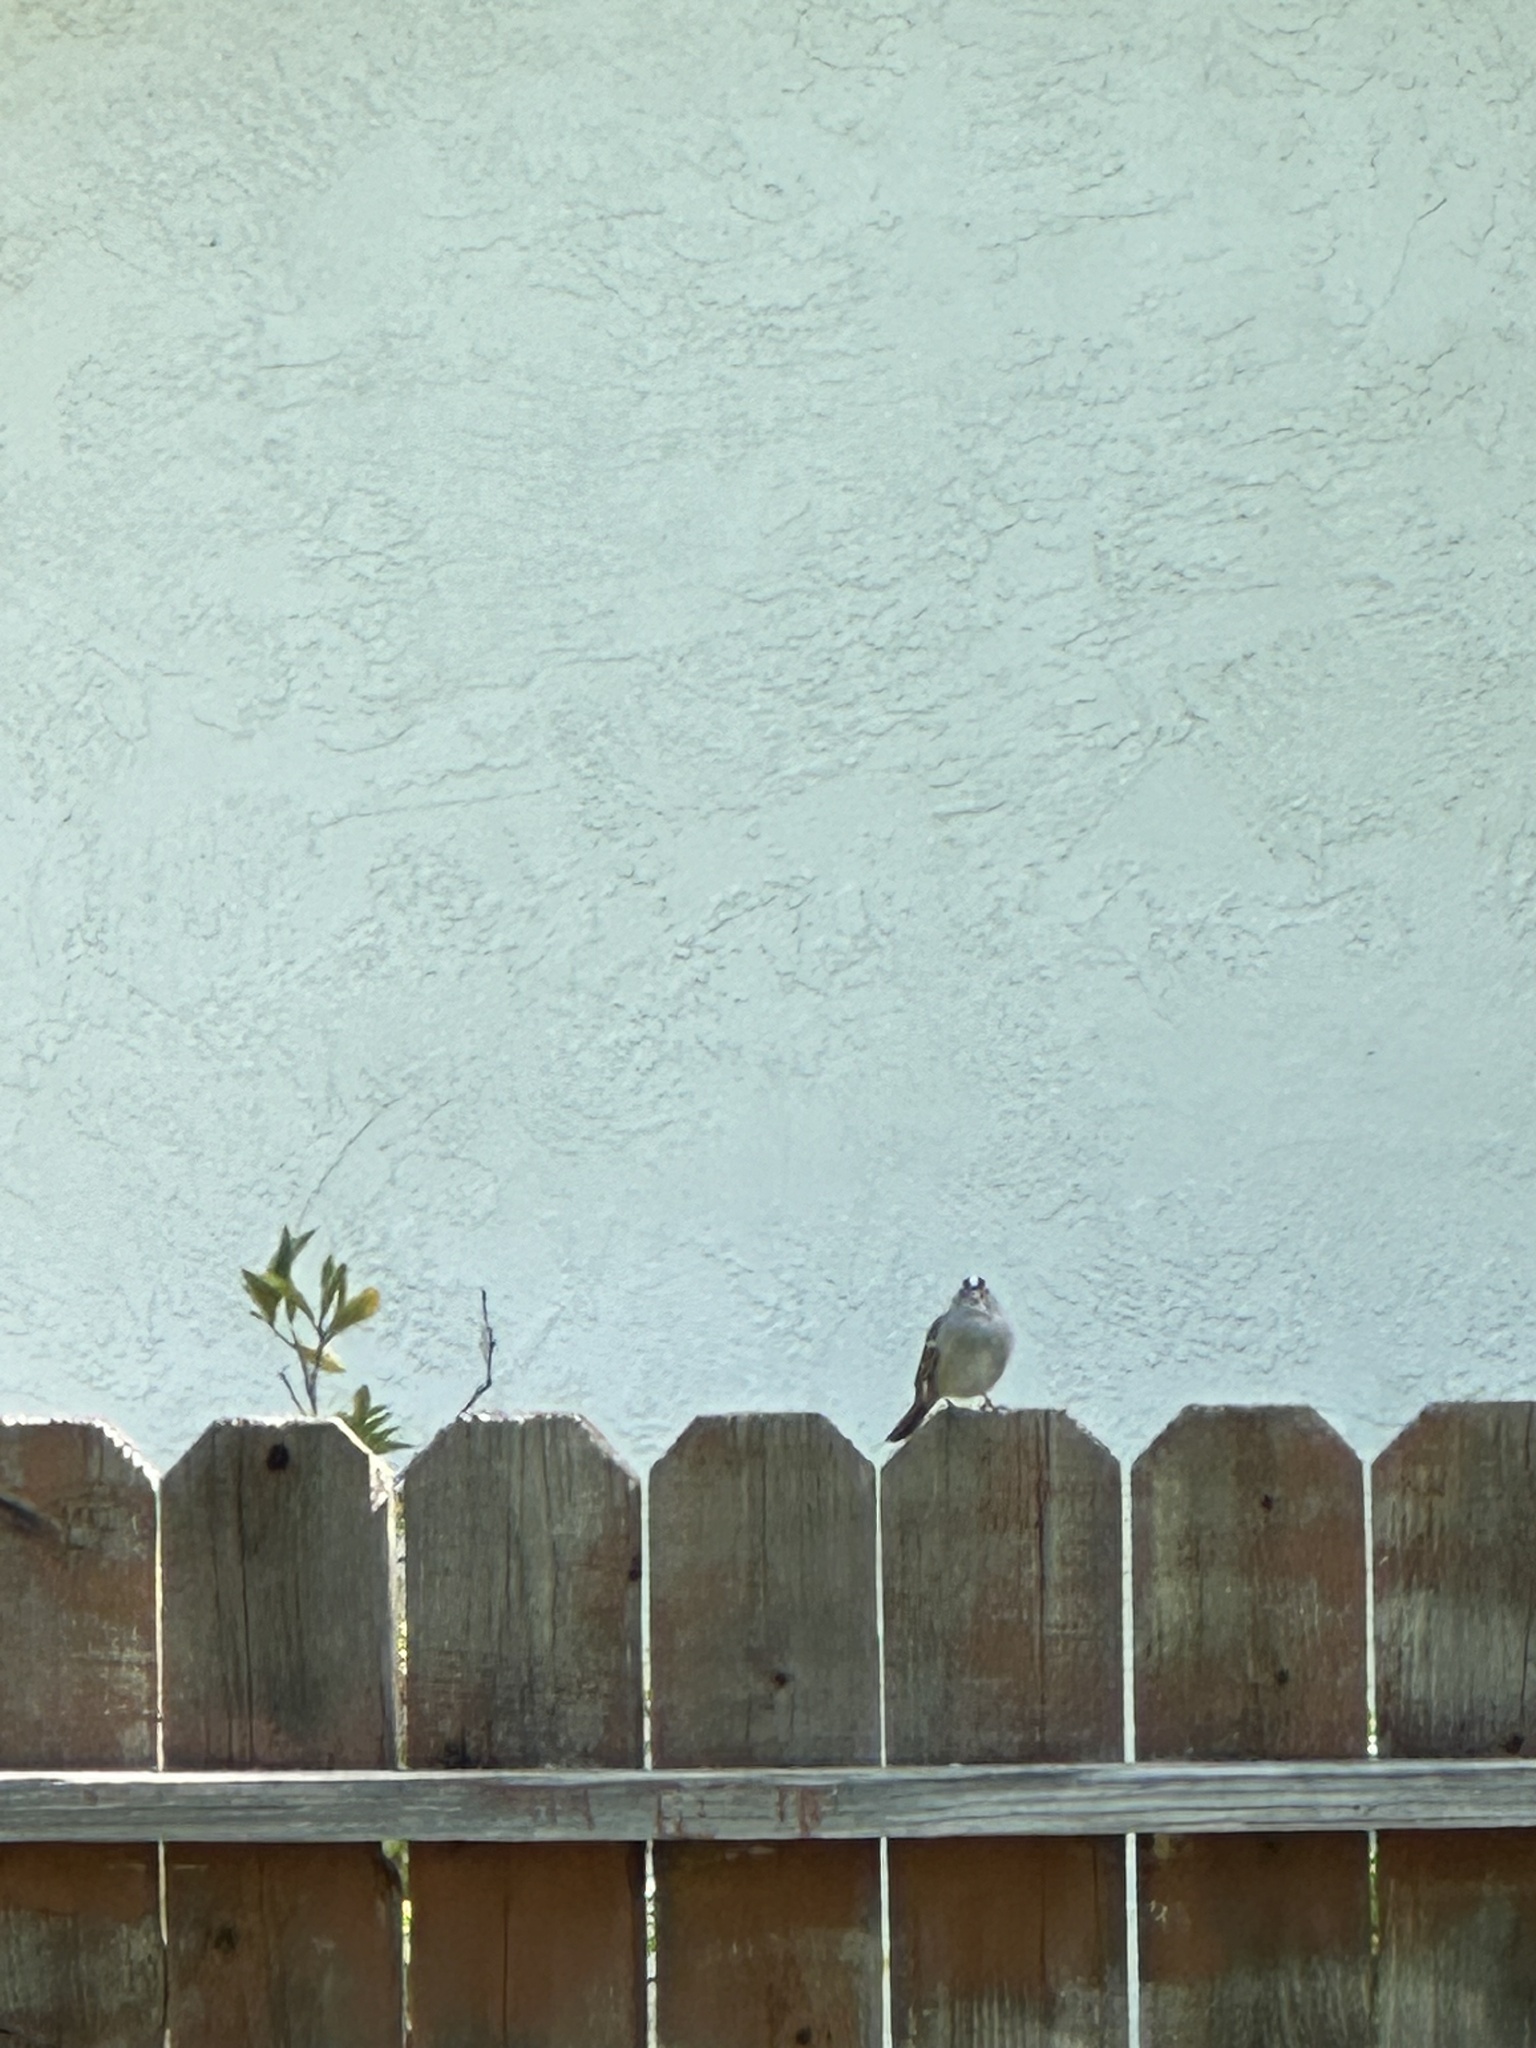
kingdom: Animalia
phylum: Chordata
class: Aves
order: Passeriformes
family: Passerellidae
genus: Zonotrichia
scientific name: Zonotrichia leucophrys
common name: White-crowned sparrow
